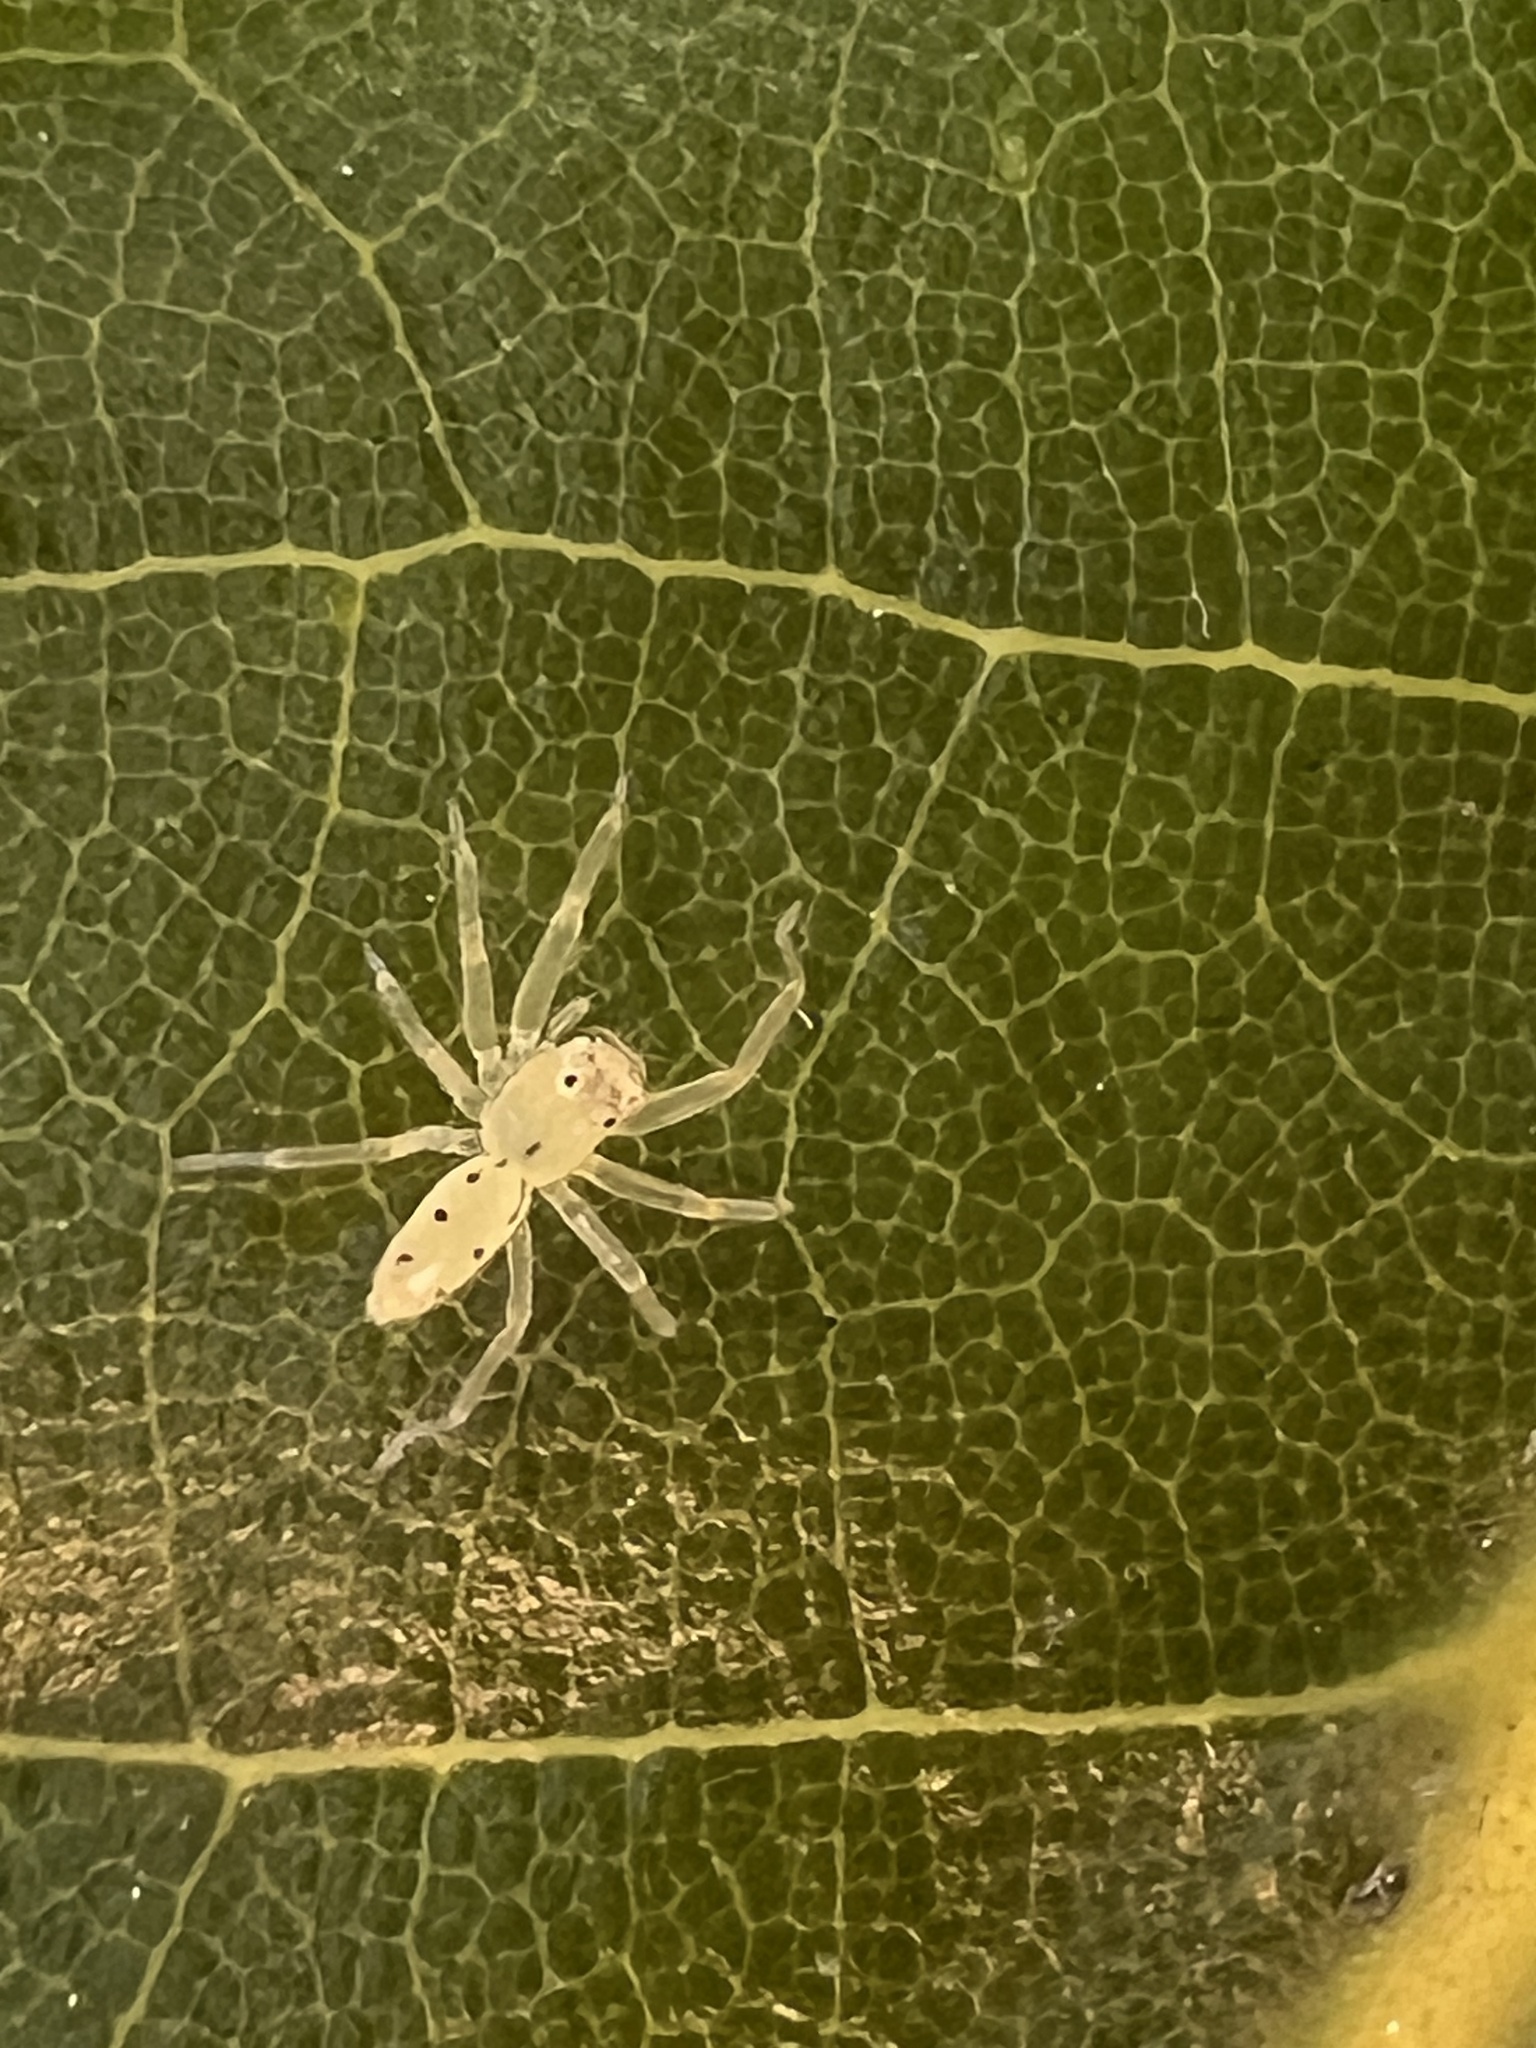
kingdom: Animalia
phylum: Arthropoda
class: Arachnida
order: Araneae
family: Salticidae
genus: Lyssomanes
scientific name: Lyssomanes viridis
